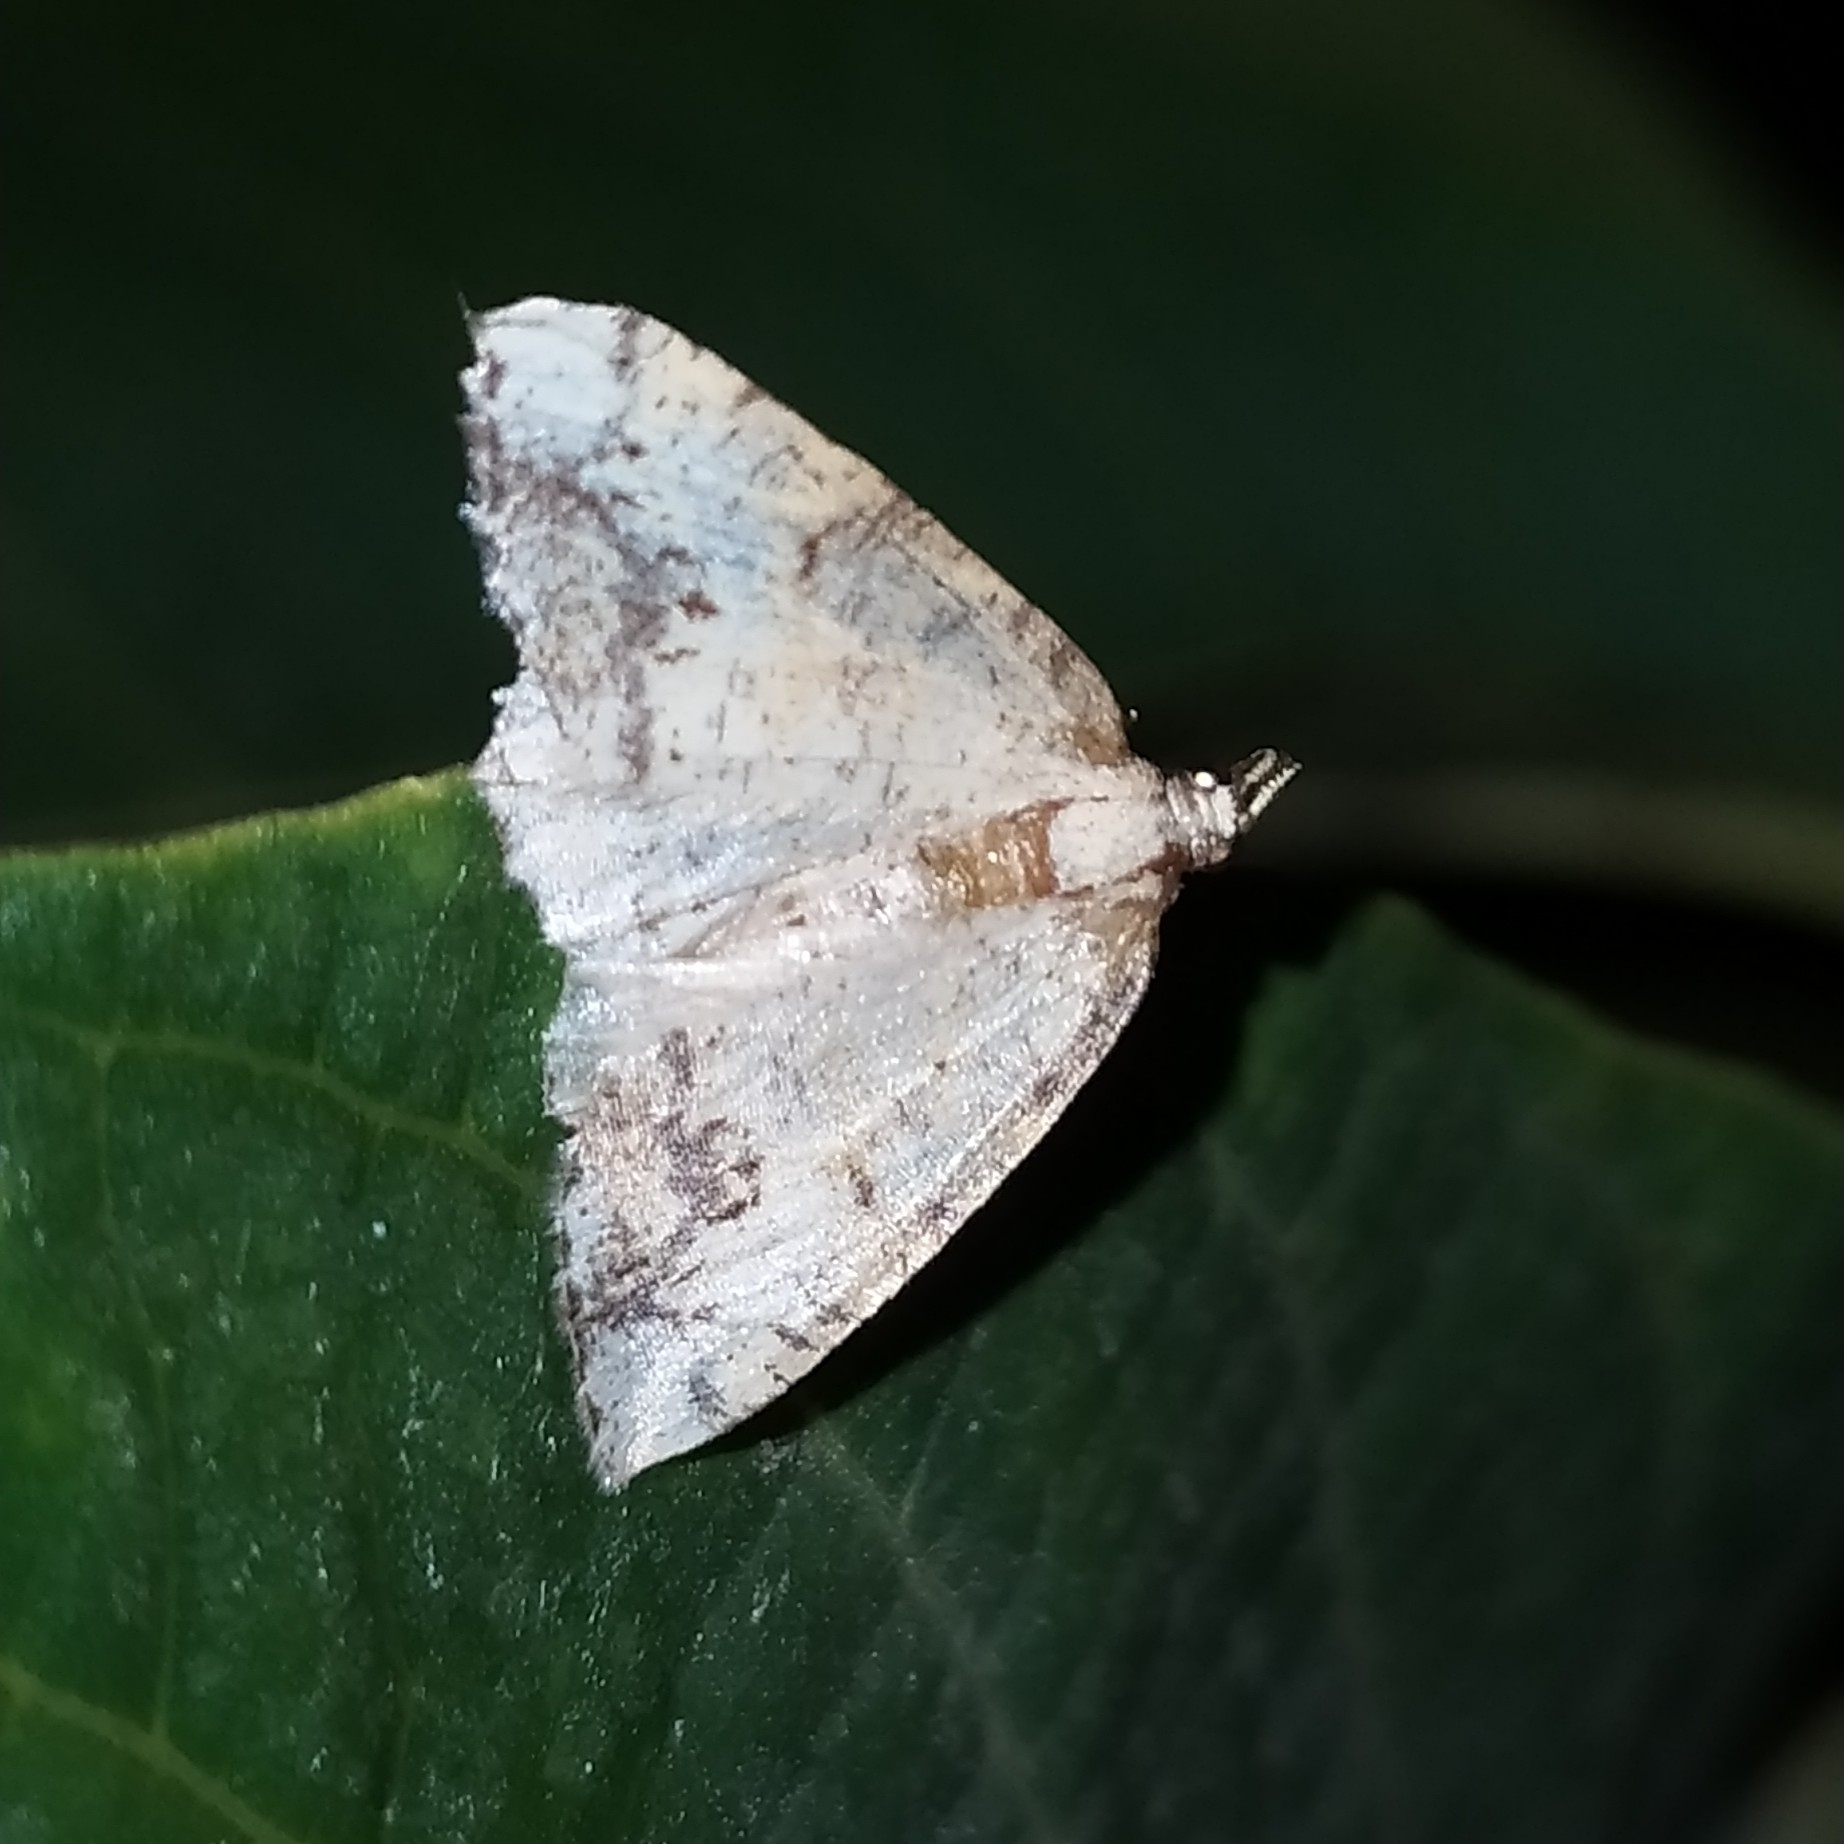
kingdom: Animalia
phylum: Arthropoda
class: Insecta
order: Lepidoptera
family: Geometridae
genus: Stegania
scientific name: Stegania dalmataria
